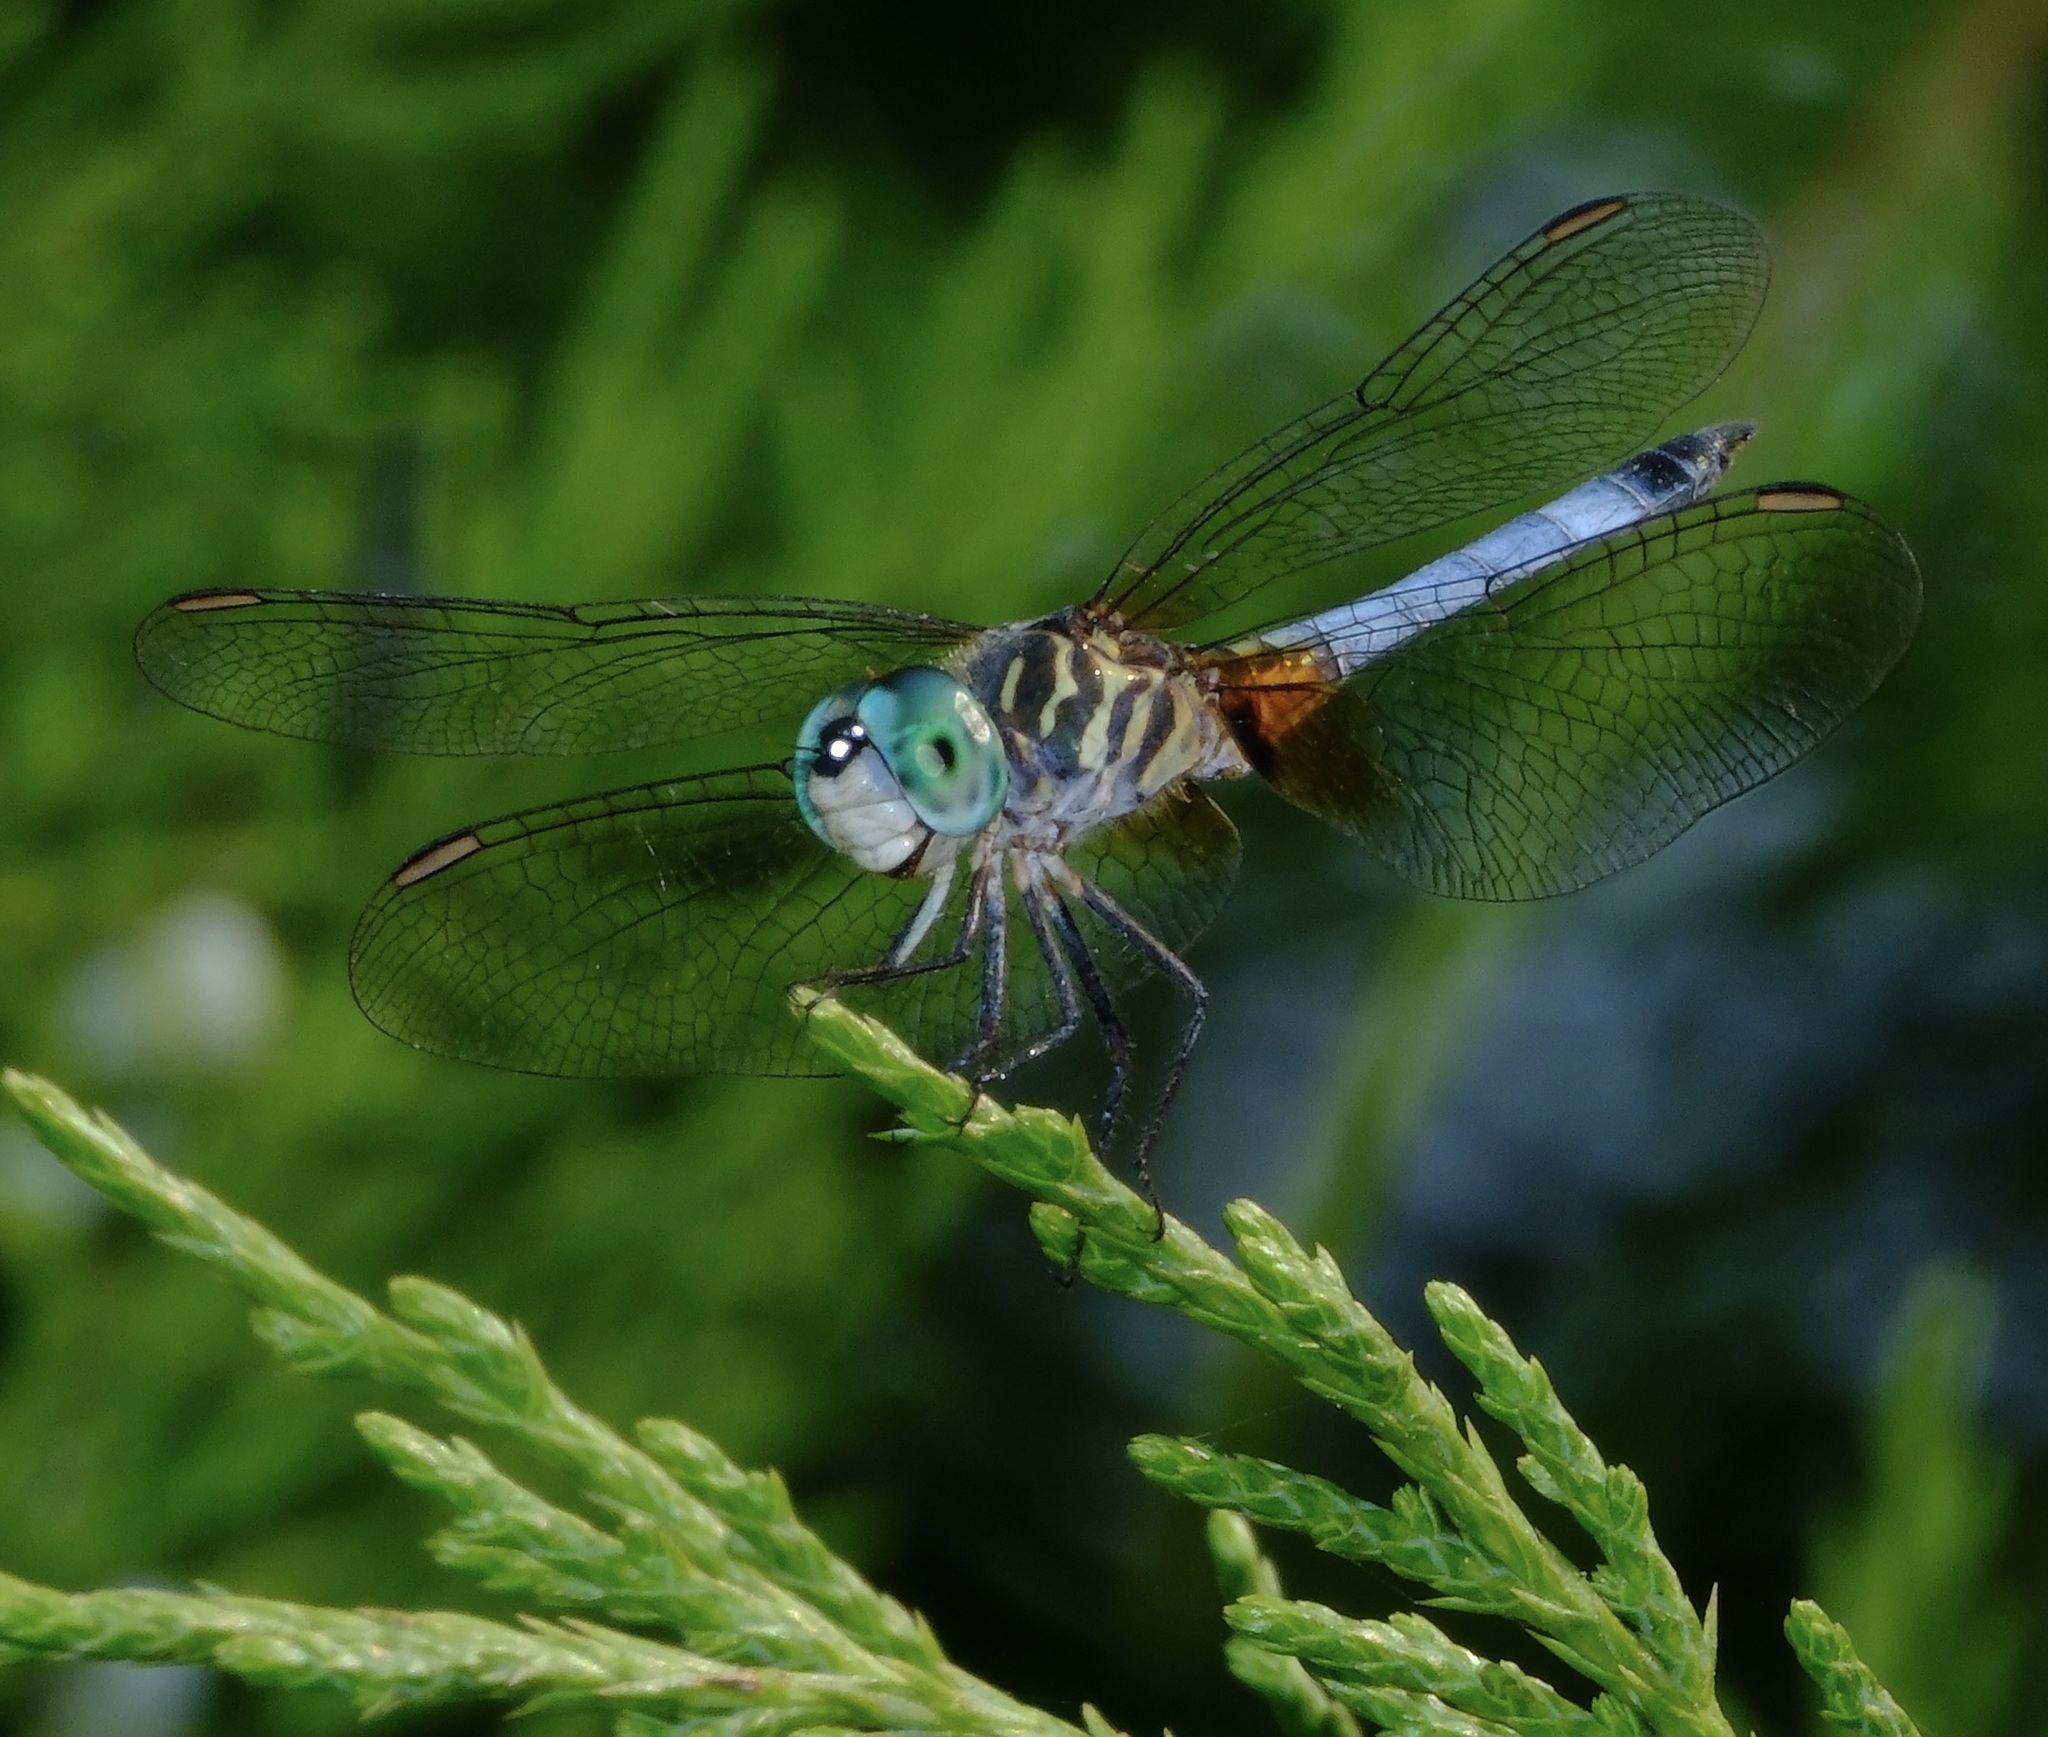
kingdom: Animalia
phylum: Arthropoda
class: Insecta
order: Odonata
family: Libellulidae
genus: Pachydiplax
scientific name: Pachydiplax longipennis
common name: Blue dasher
